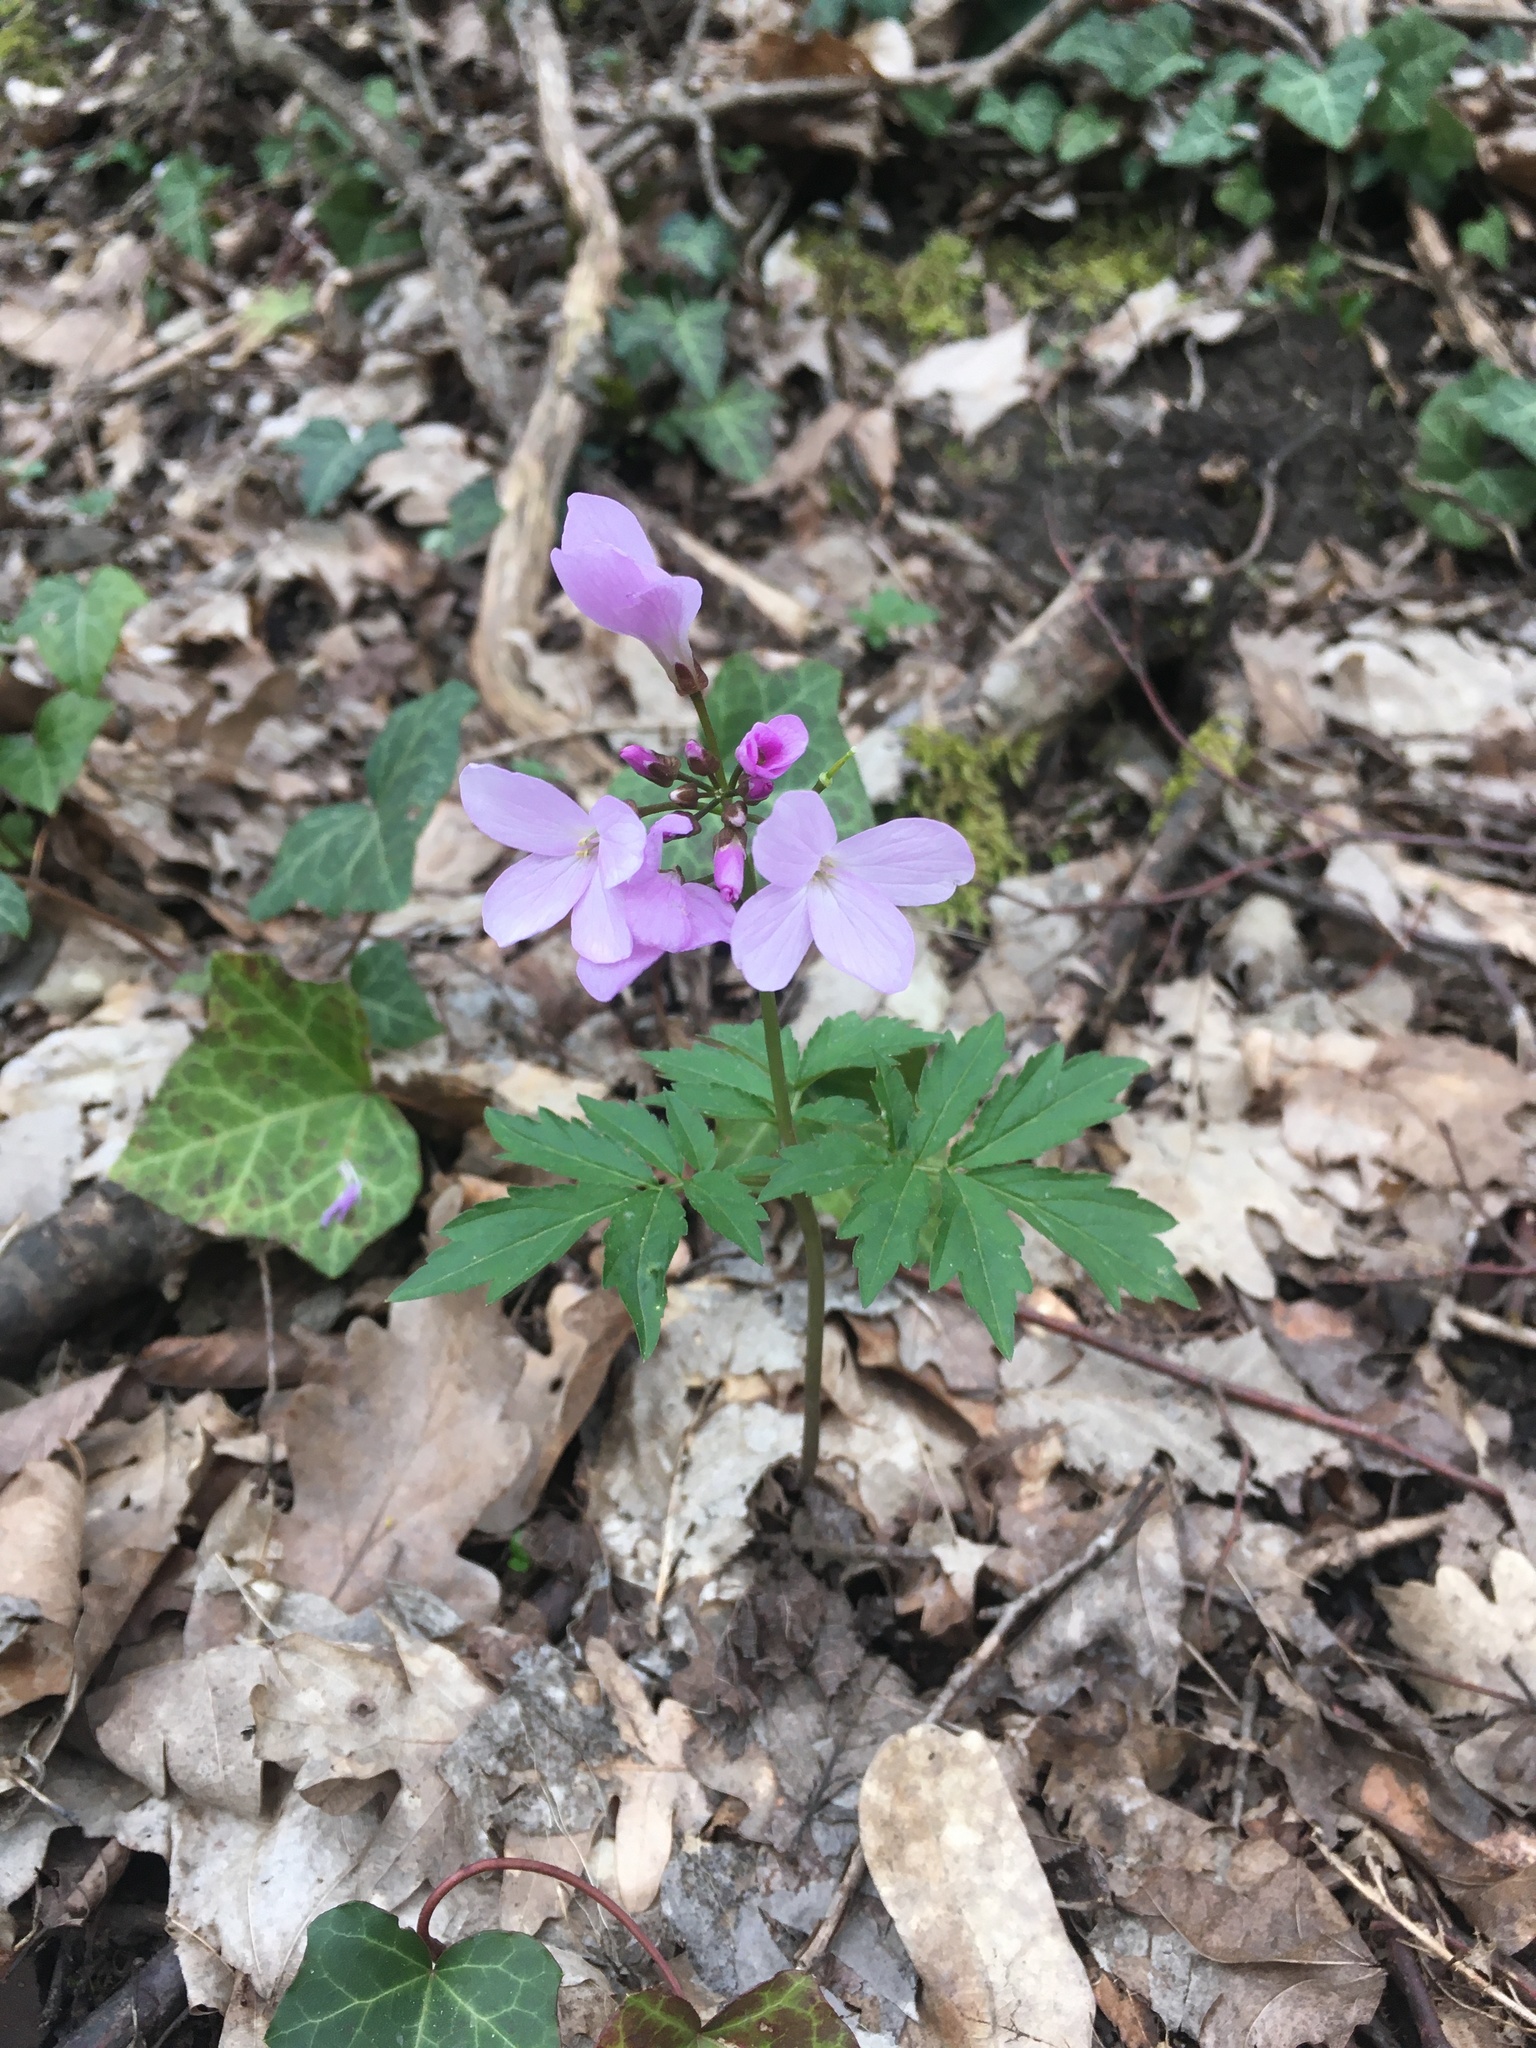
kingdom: Plantae
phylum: Tracheophyta
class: Magnoliopsida
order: Brassicales
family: Brassicaceae
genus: Cardamine
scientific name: Cardamine quinquefolia
